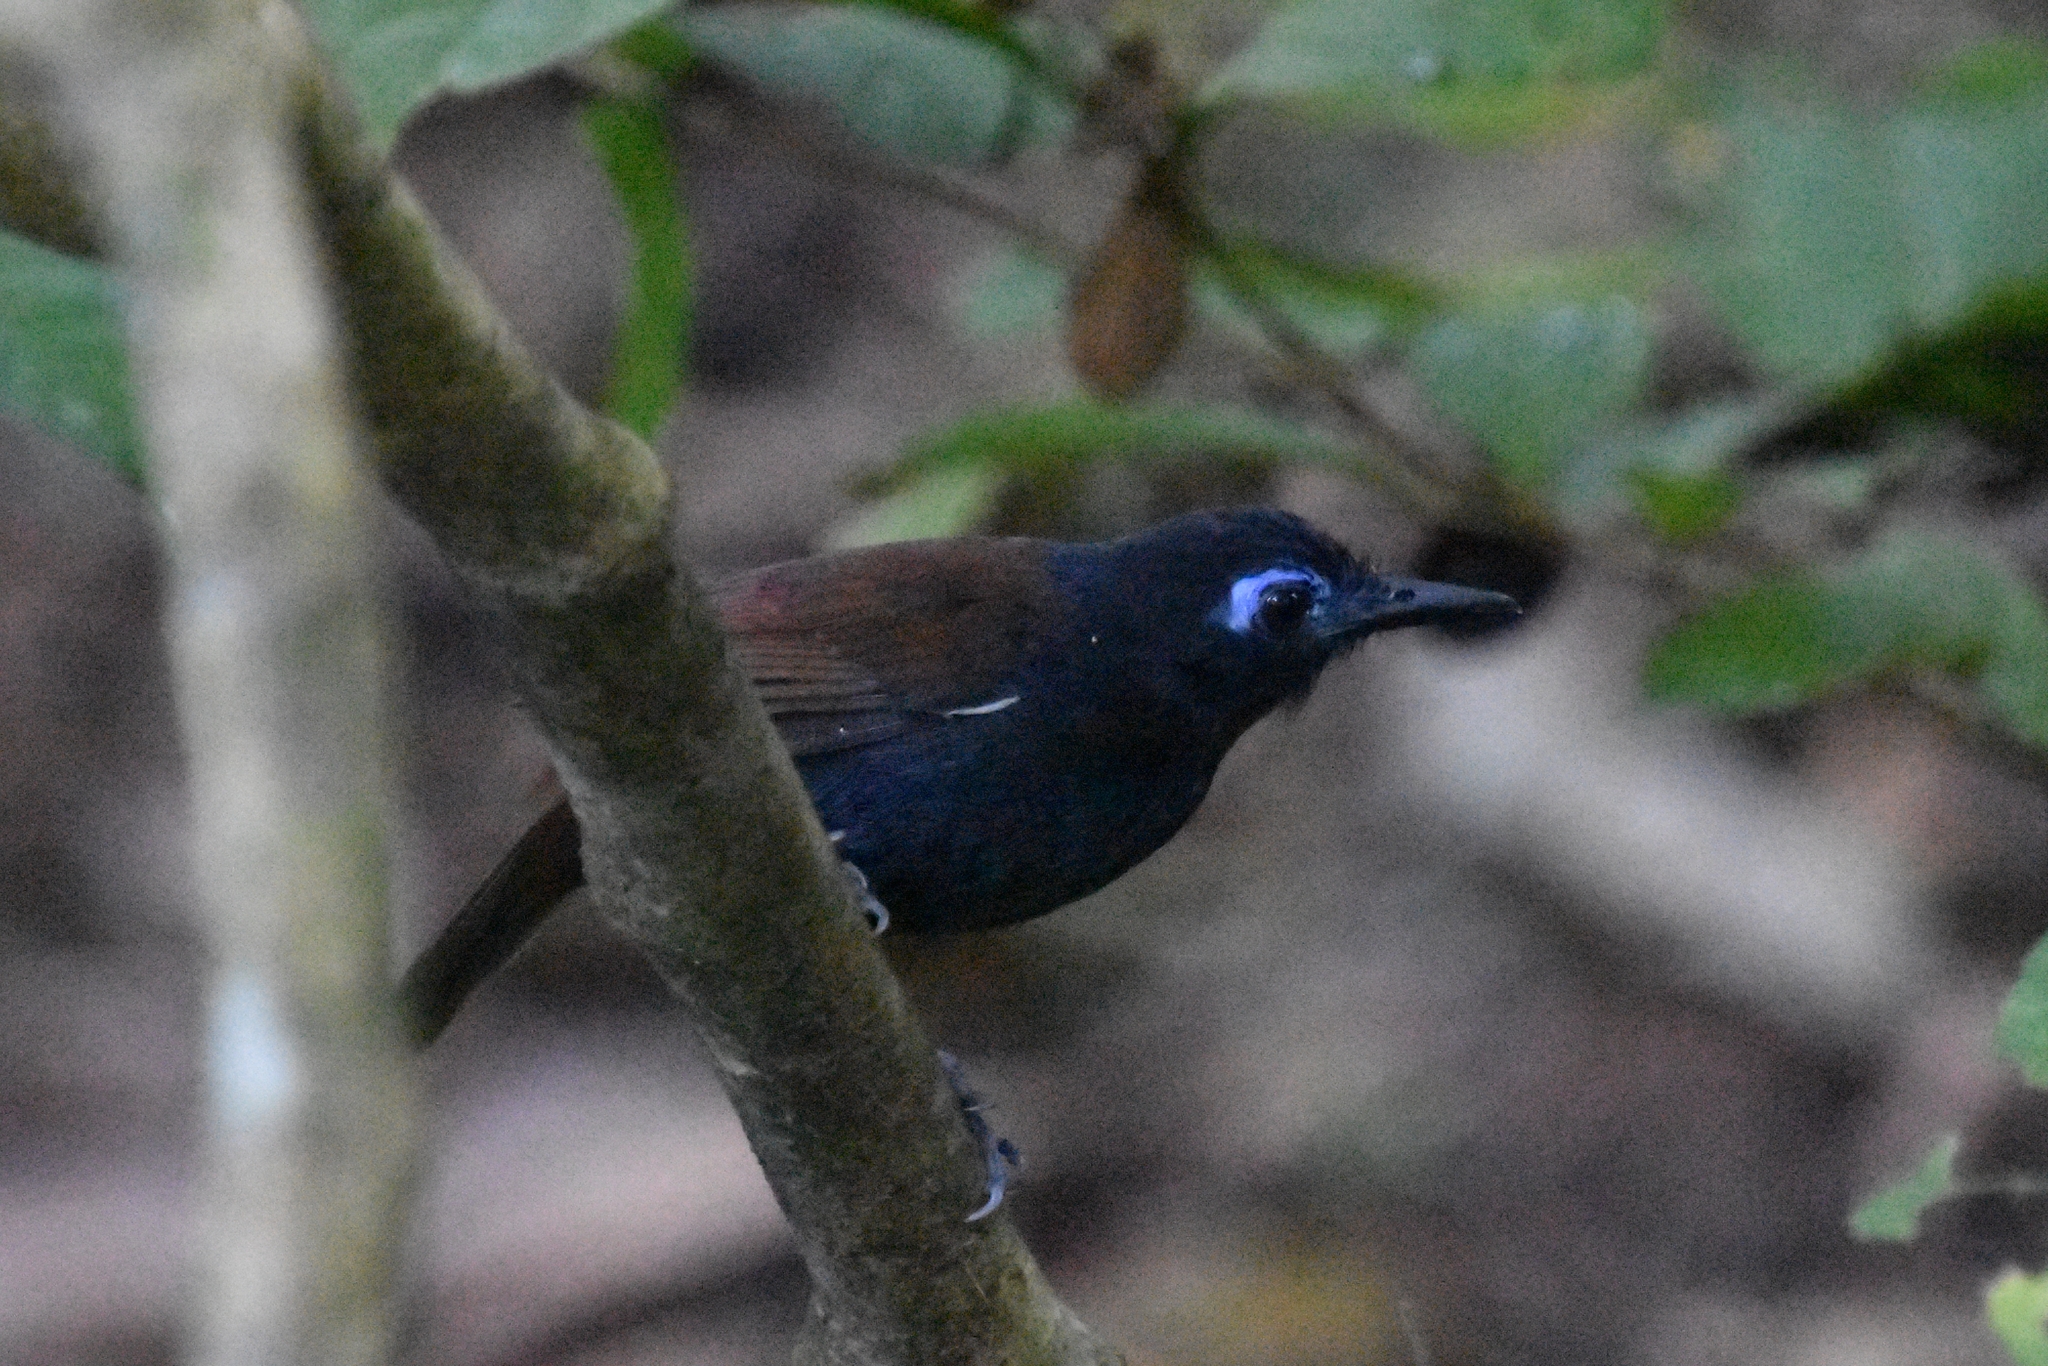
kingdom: Animalia
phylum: Chordata
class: Aves
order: Passeriformes
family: Thamnophilidae
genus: Myrmeciza
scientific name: Myrmeciza exsul
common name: Chestnut-backed antbird
